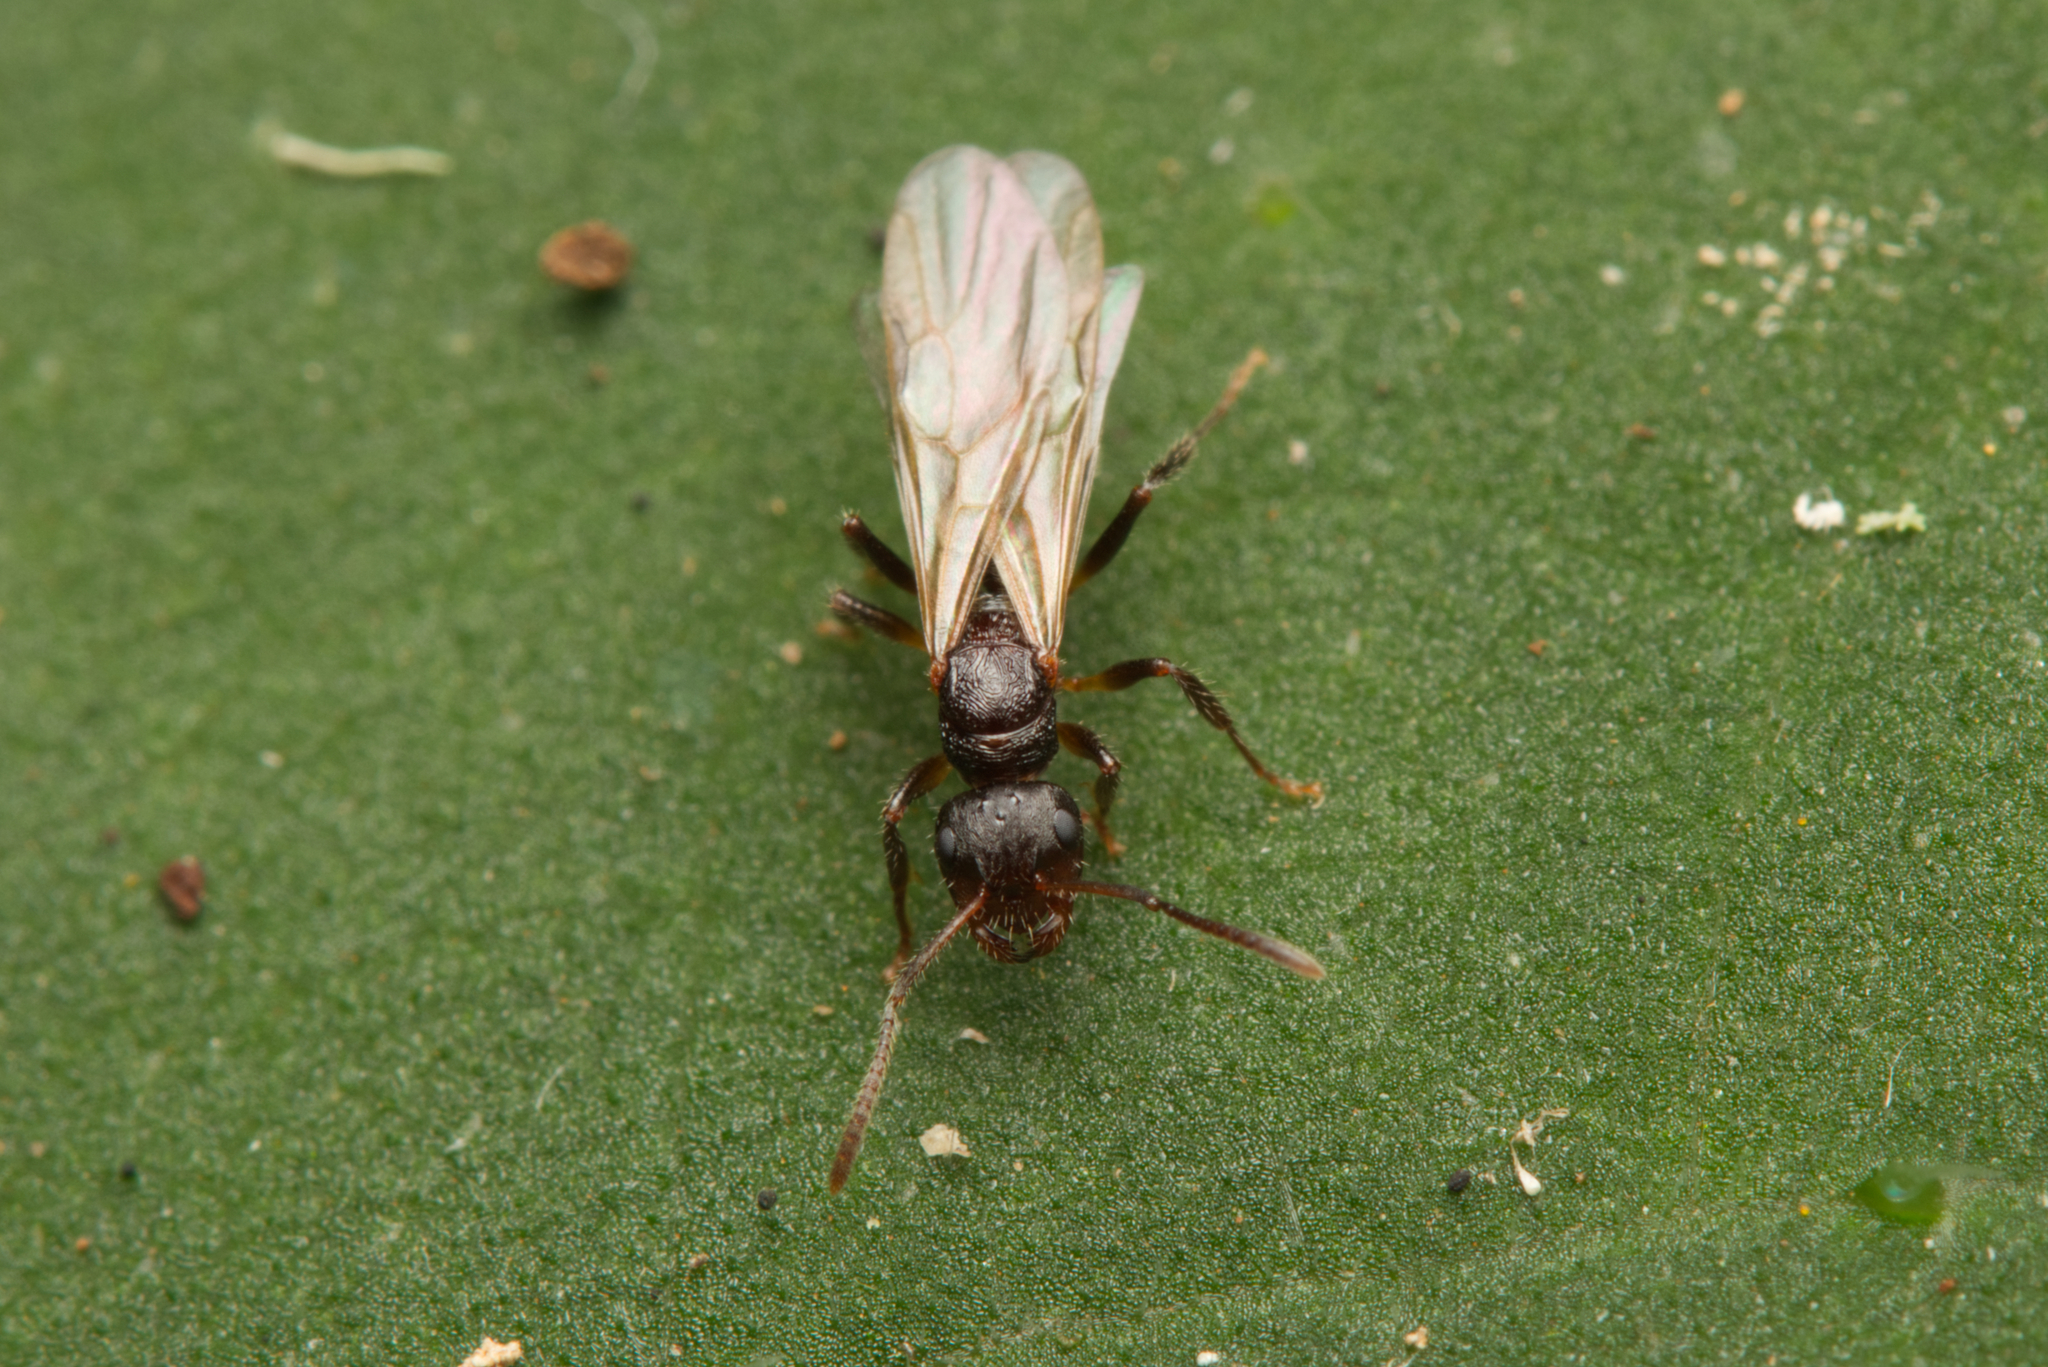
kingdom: Animalia
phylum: Arthropoda
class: Insecta
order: Hymenoptera
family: Formicidae
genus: Pseudonotoncus
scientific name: Pseudonotoncus hirsutus
